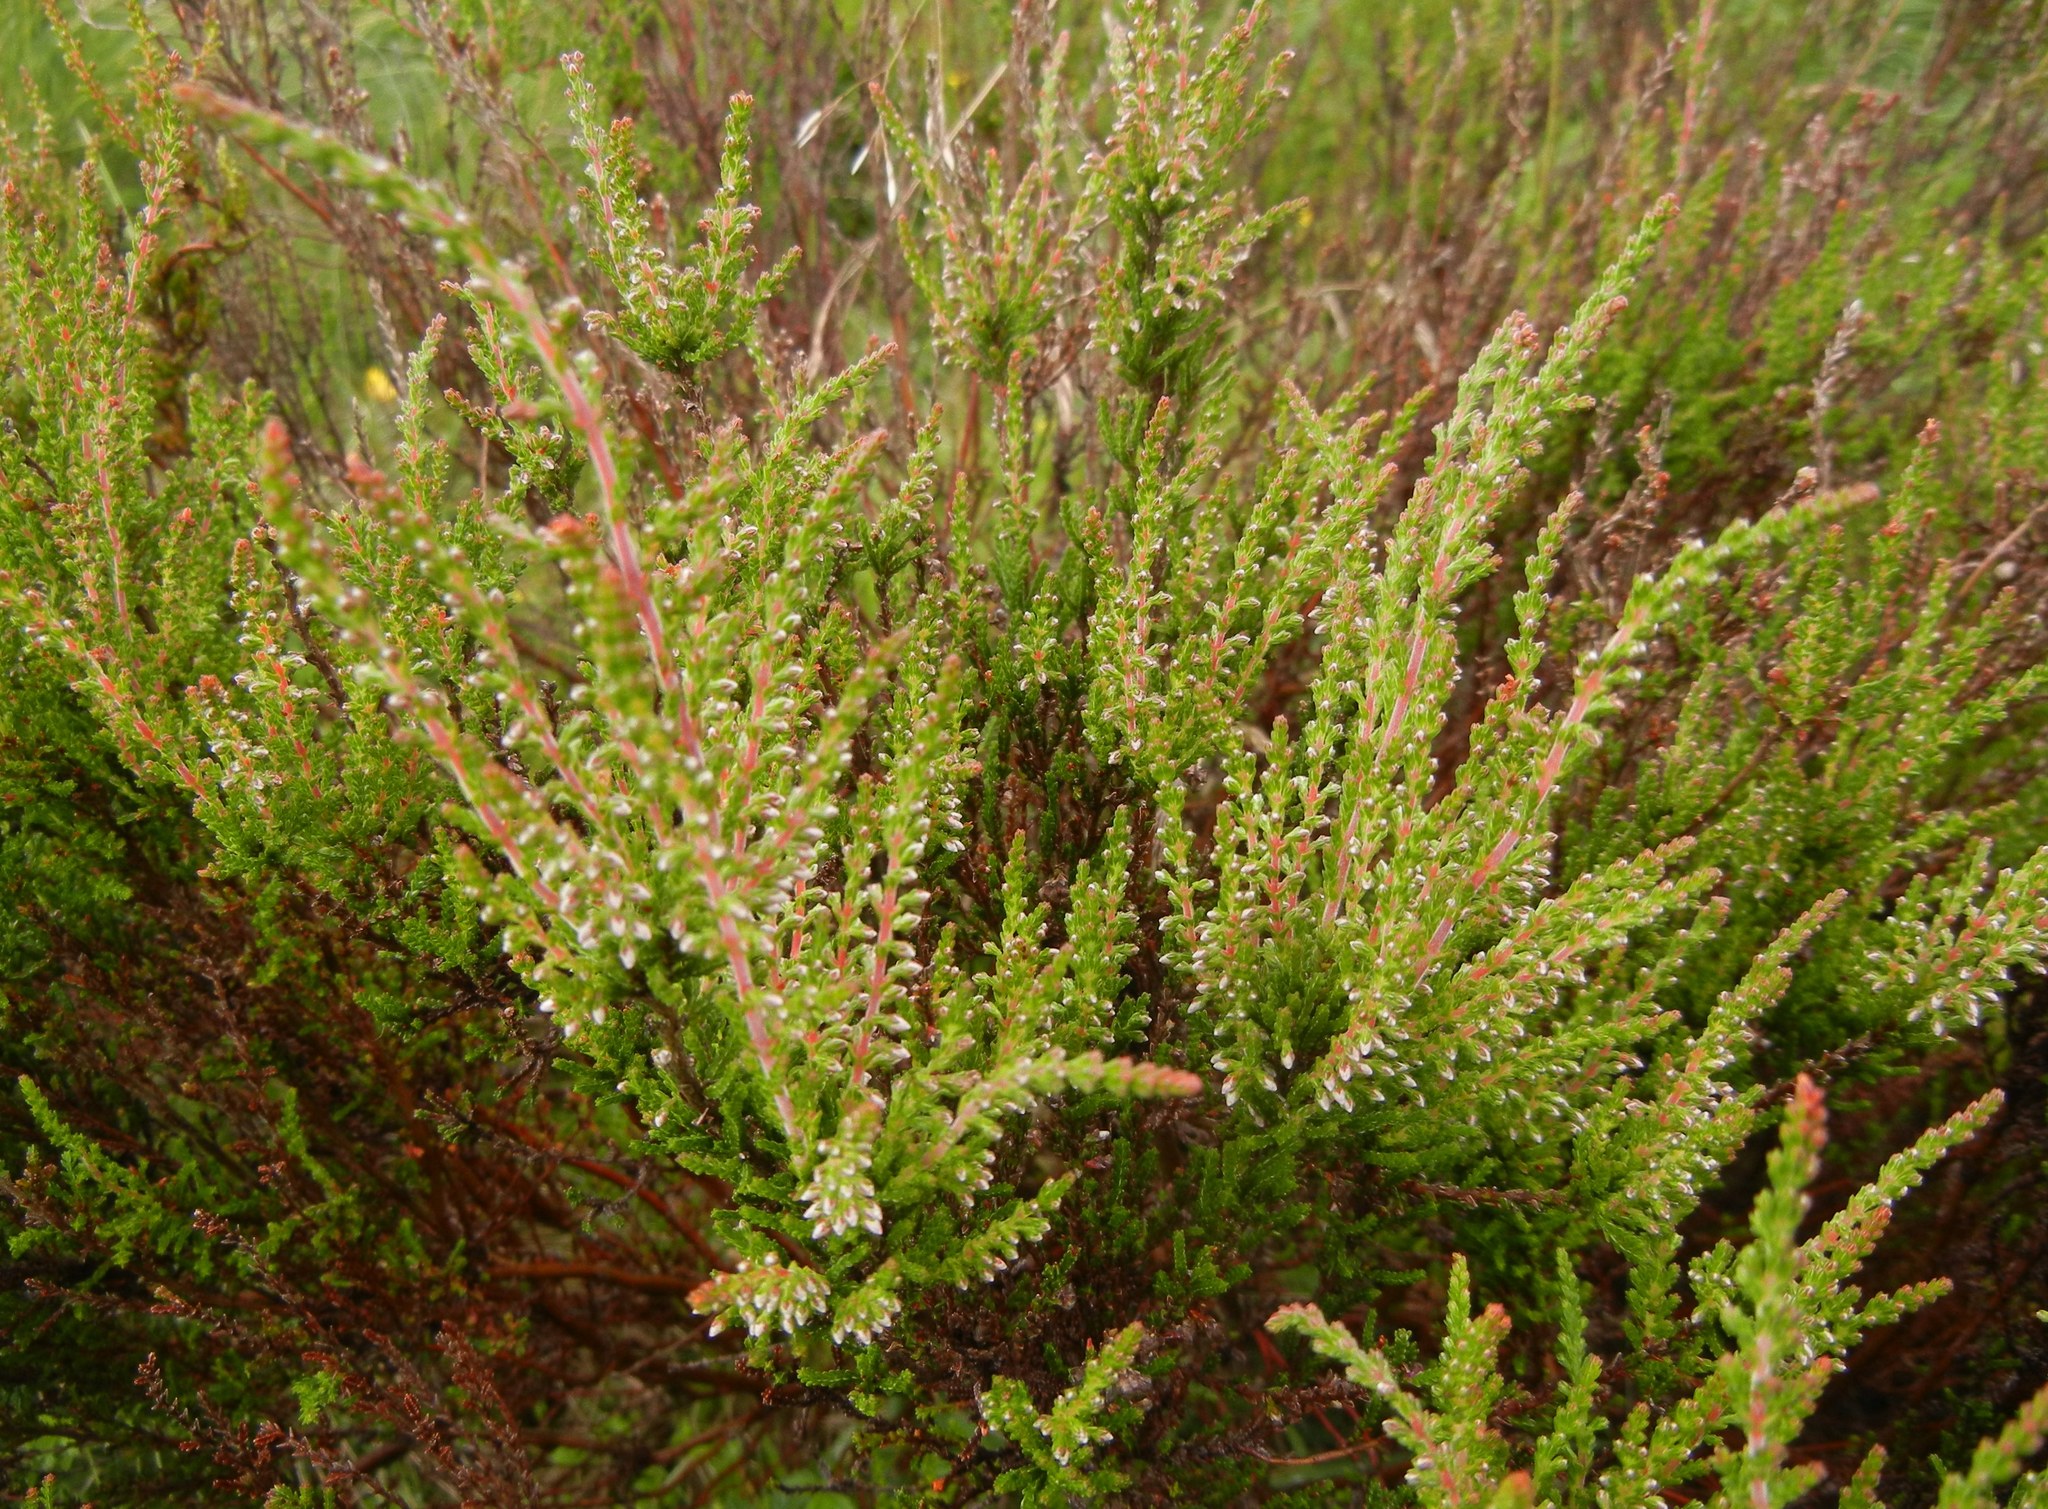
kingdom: Plantae
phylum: Tracheophyta
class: Magnoliopsida
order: Ericales
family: Ericaceae
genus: Calluna
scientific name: Calluna vulgaris
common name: Heather
